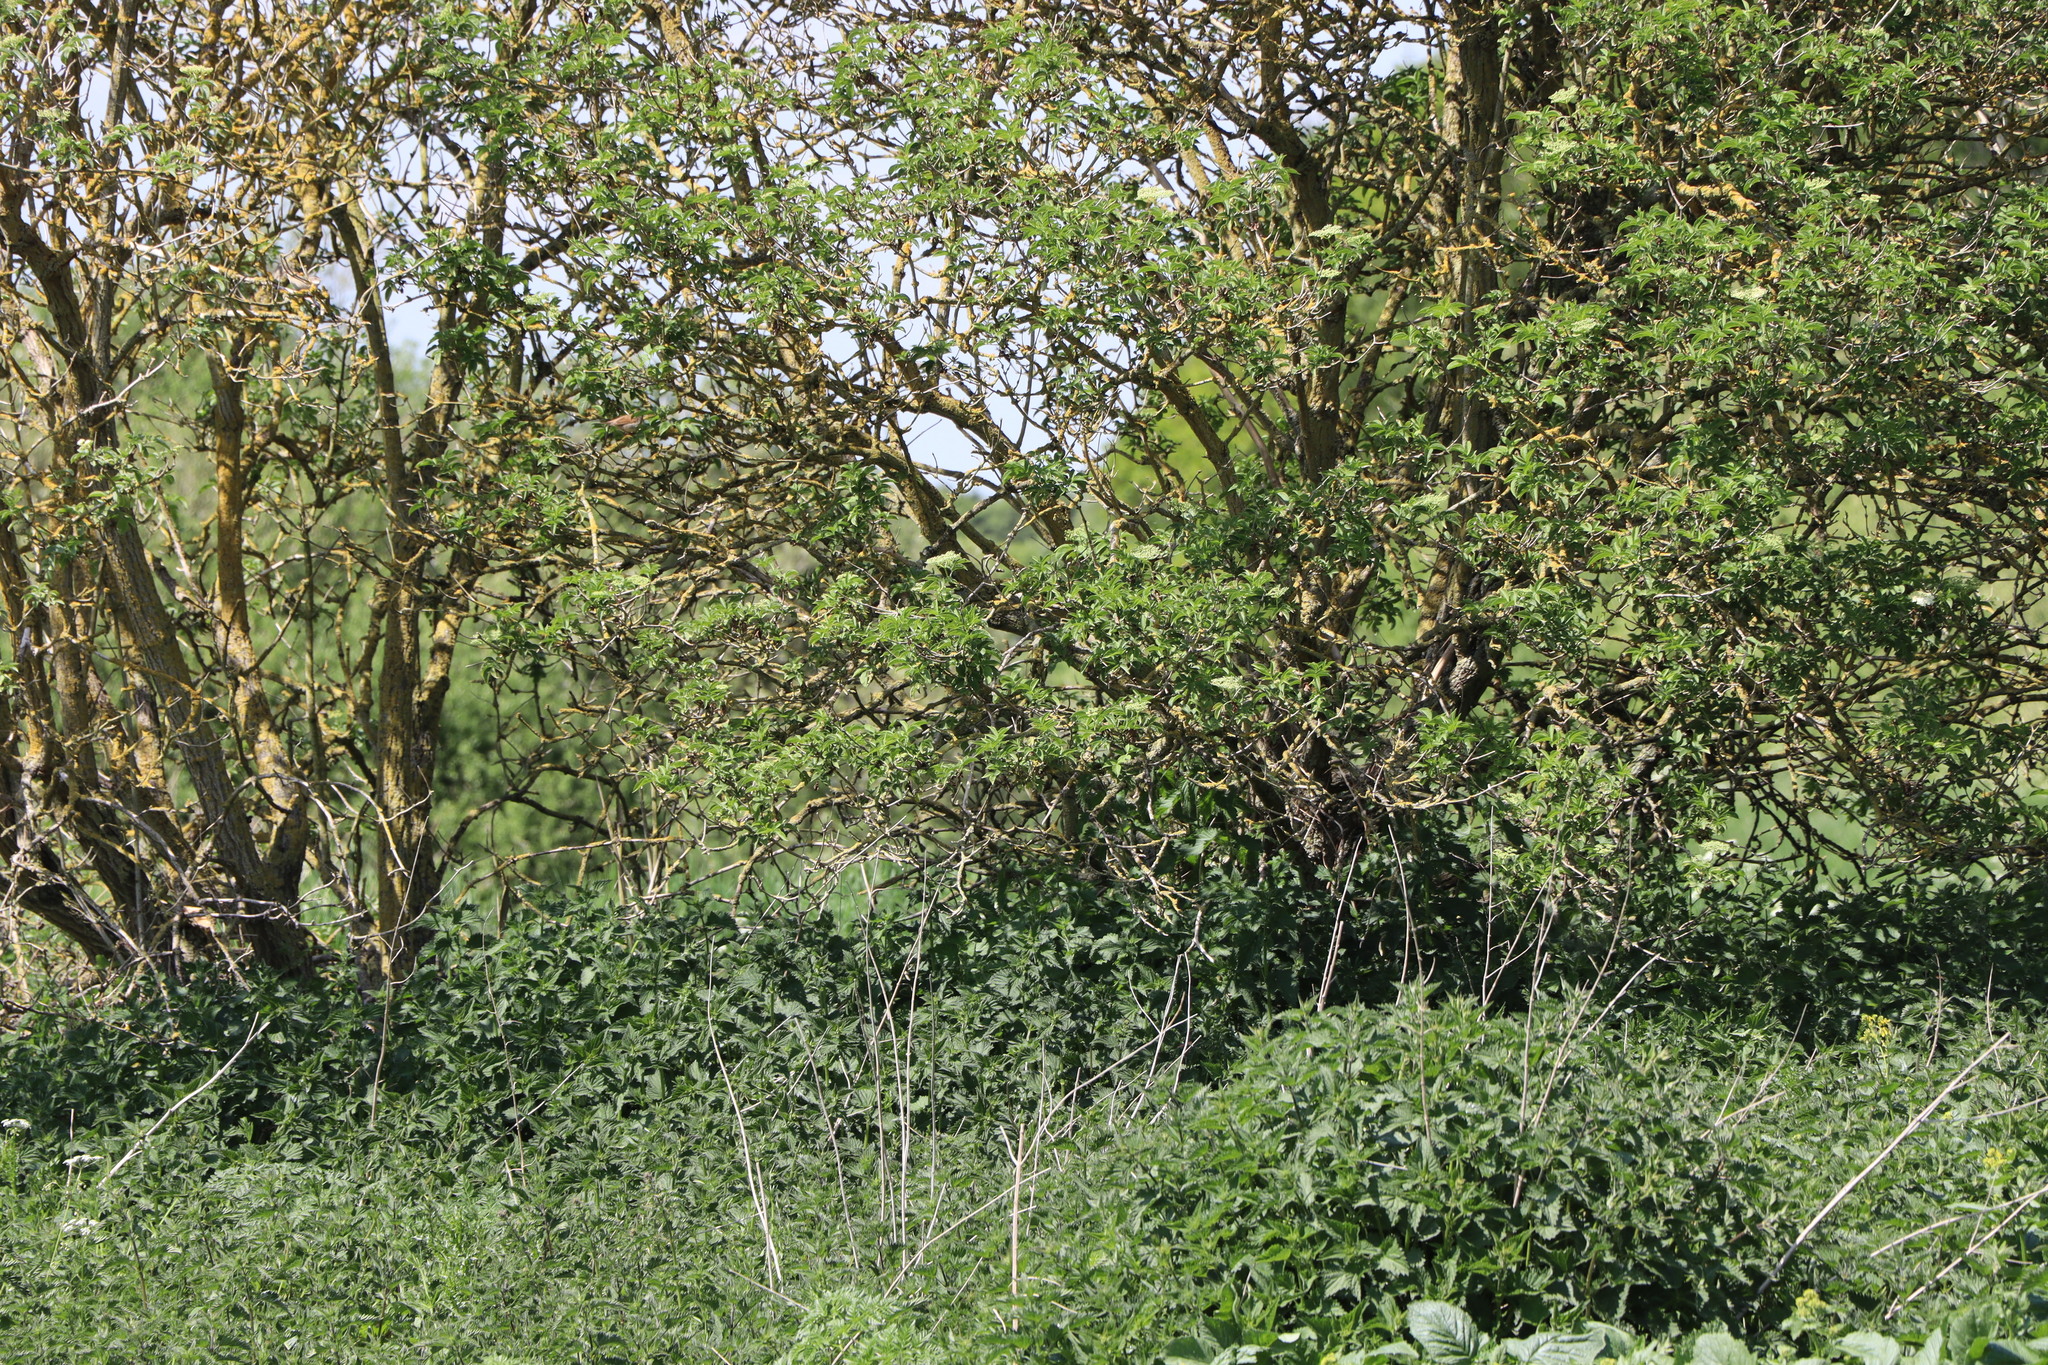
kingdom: Animalia
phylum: Chordata
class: Aves
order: Passeriformes
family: Sylviidae
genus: Sylvia
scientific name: Sylvia communis
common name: Common whitethroat
